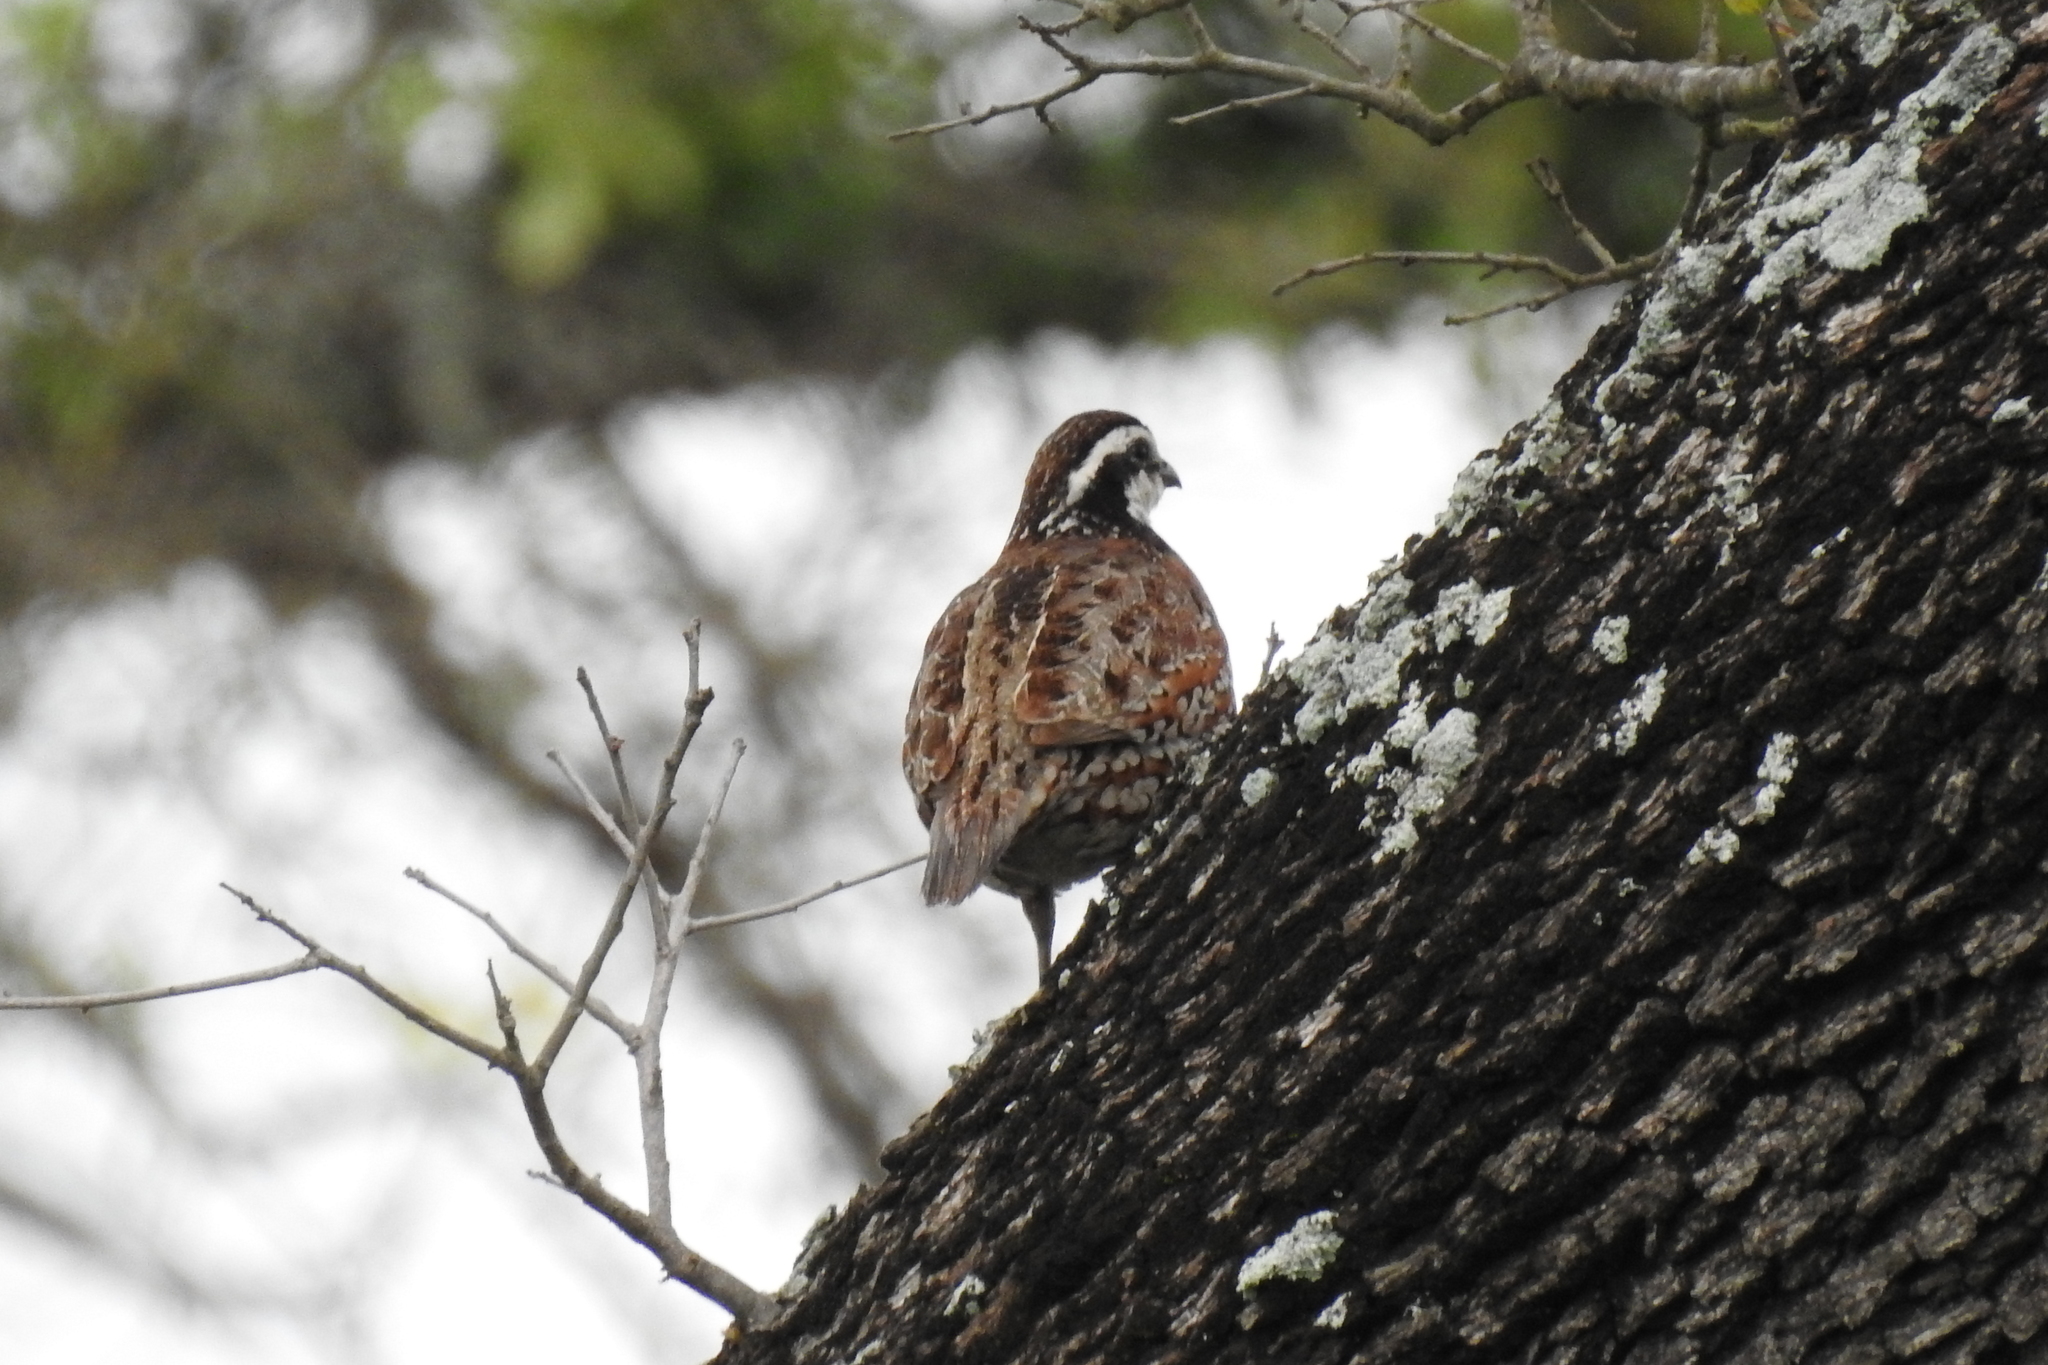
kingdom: Animalia
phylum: Chordata
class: Aves
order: Galliformes
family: Odontophoridae
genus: Colinus
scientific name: Colinus virginianus
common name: Northern bobwhite
